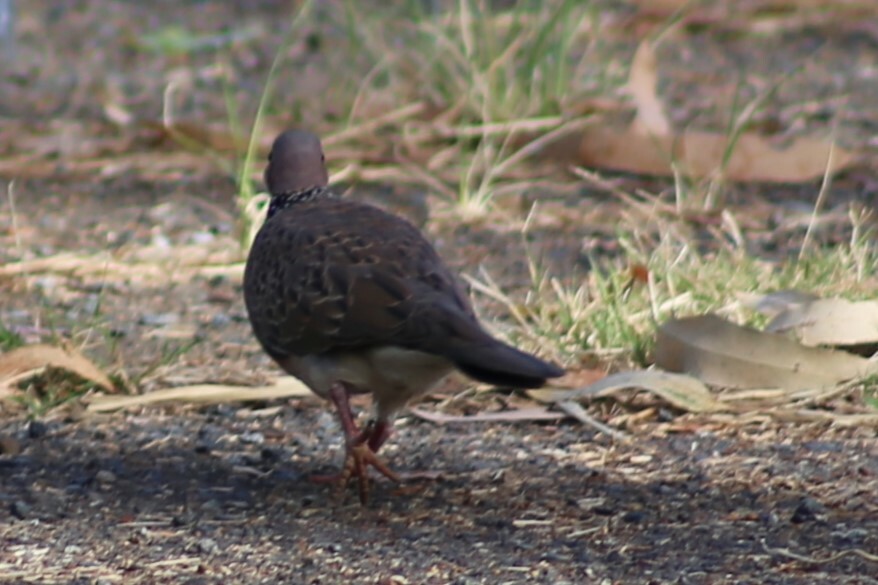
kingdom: Animalia
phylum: Chordata
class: Aves
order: Columbiformes
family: Columbidae
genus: Spilopelia
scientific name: Spilopelia chinensis
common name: Spotted dove
